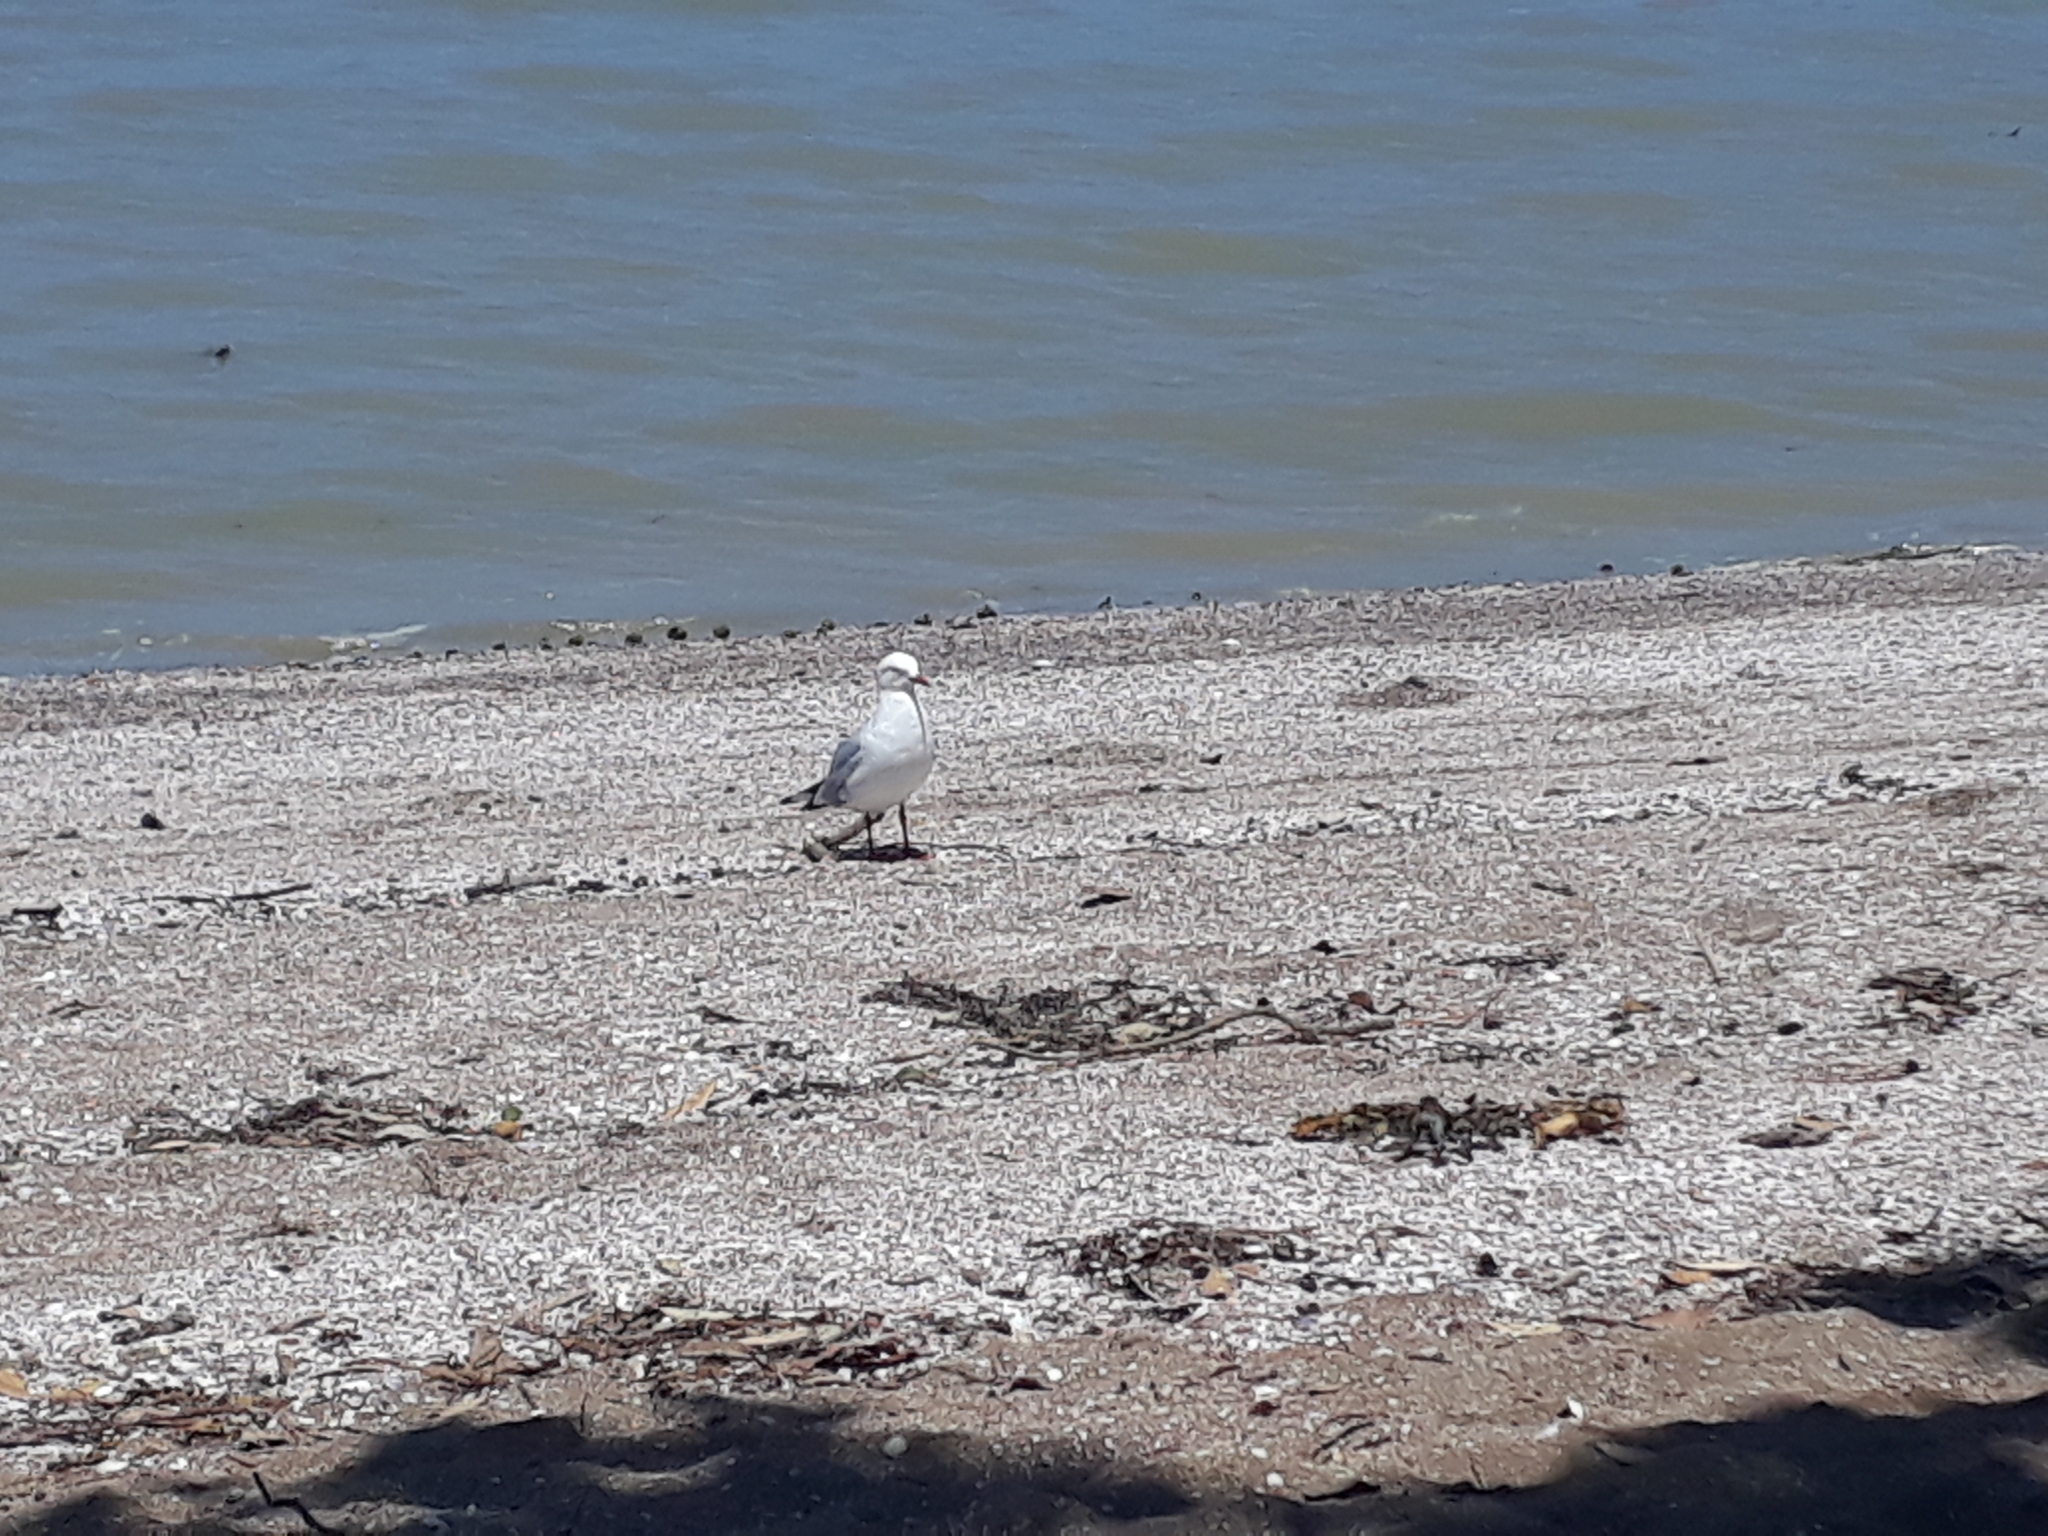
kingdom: Animalia
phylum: Chordata
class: Aves
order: Charadriiformes
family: Laridae
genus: Chroicocephalus
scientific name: Chroicocephalus novaehollandiae
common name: Silver gull
